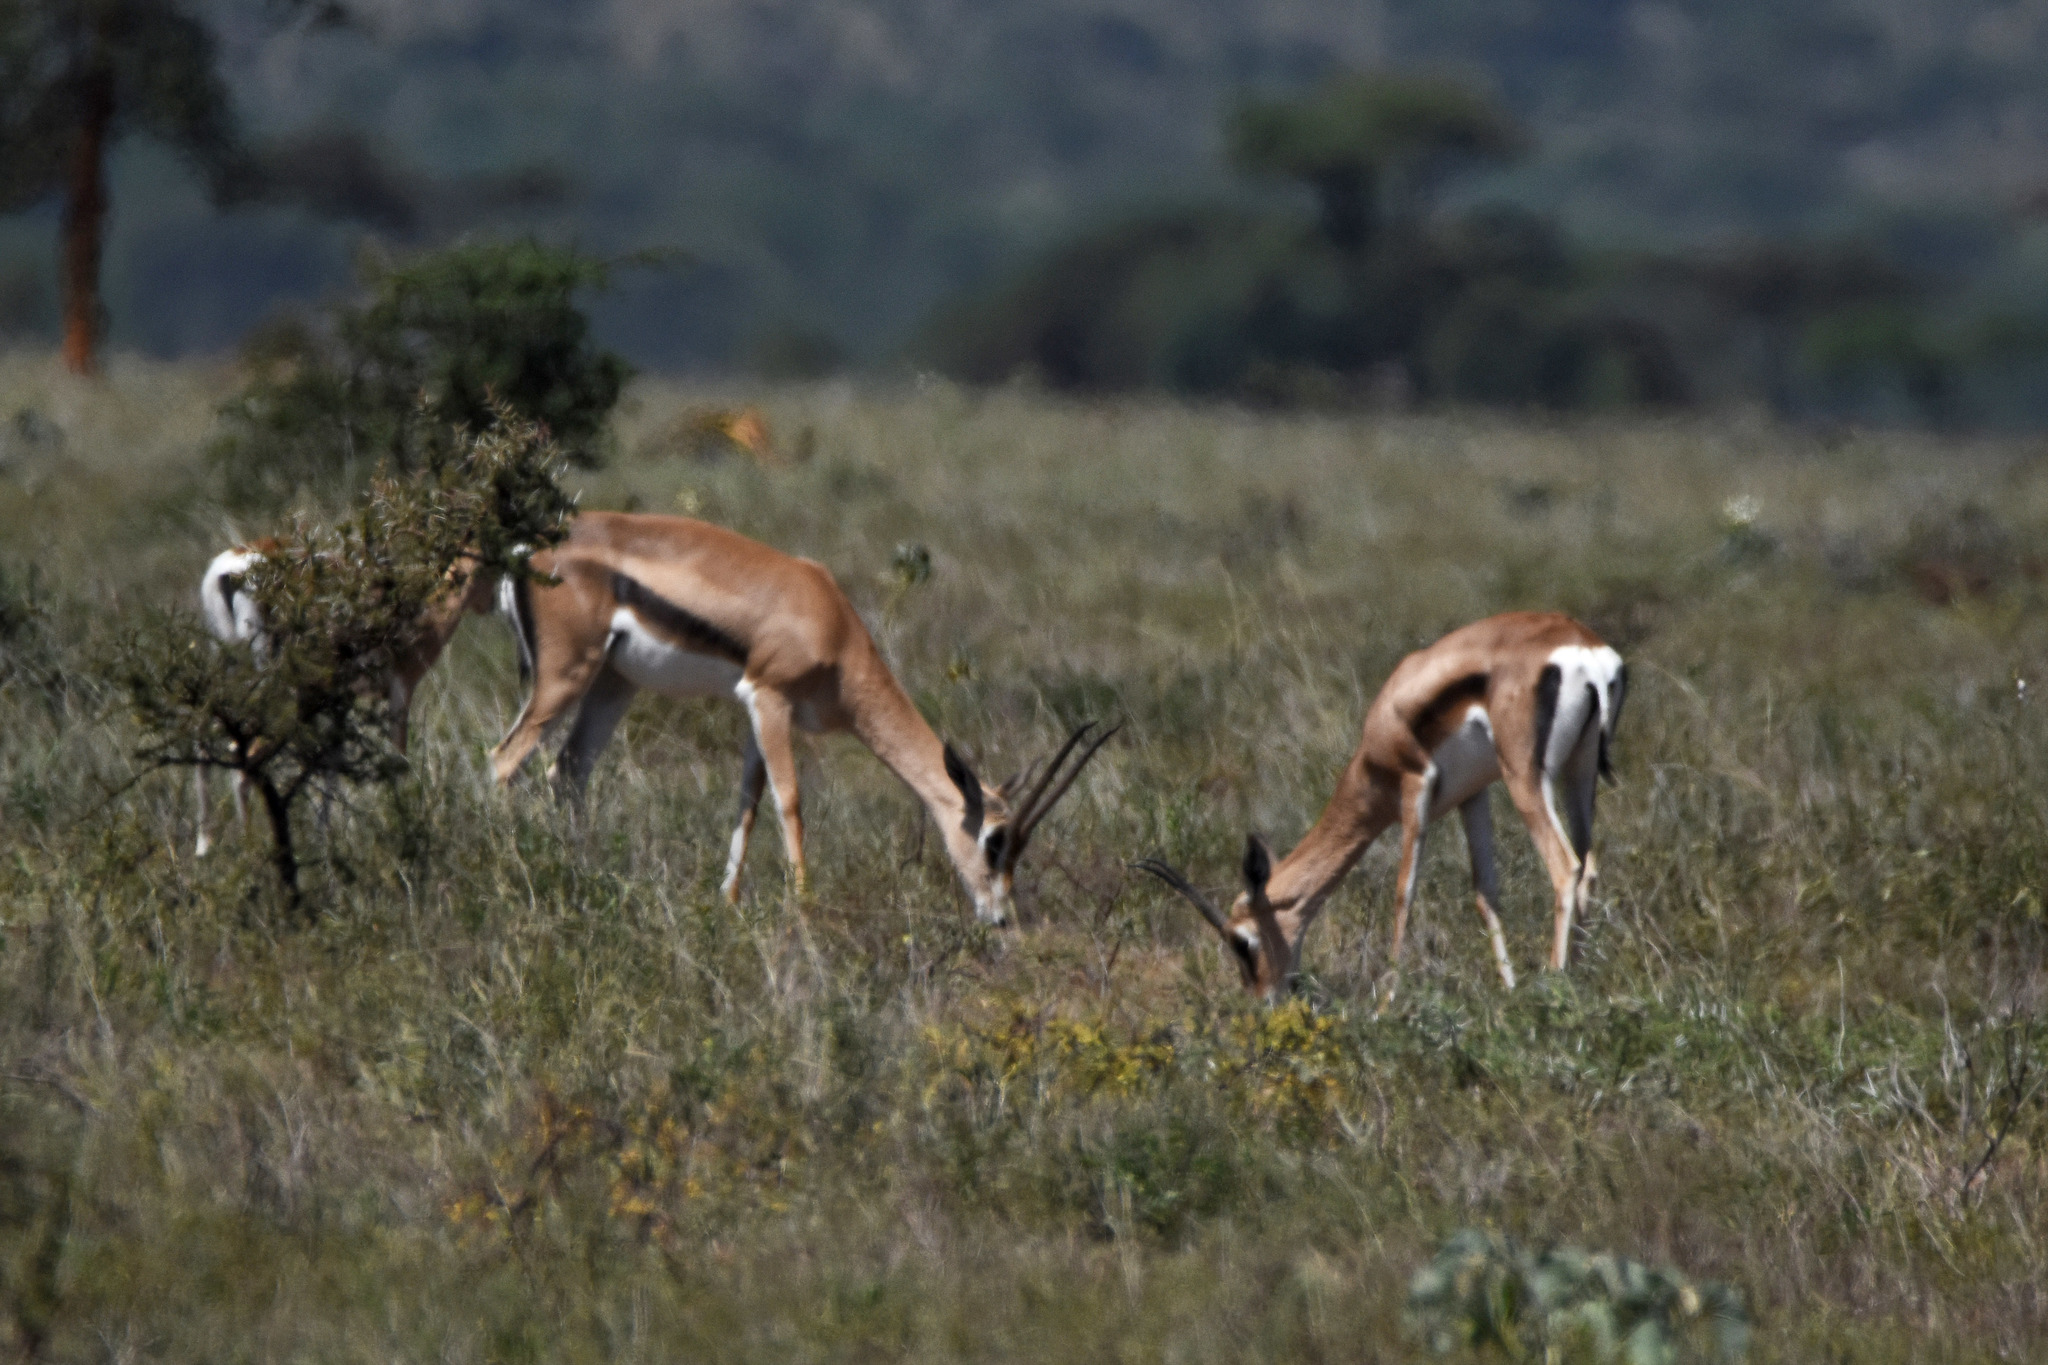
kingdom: Animalia
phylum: Chordata
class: Mammalia
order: Artiodactyla
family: Bovidae
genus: Nanger
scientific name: Nanger granti
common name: Grant's gazelle
